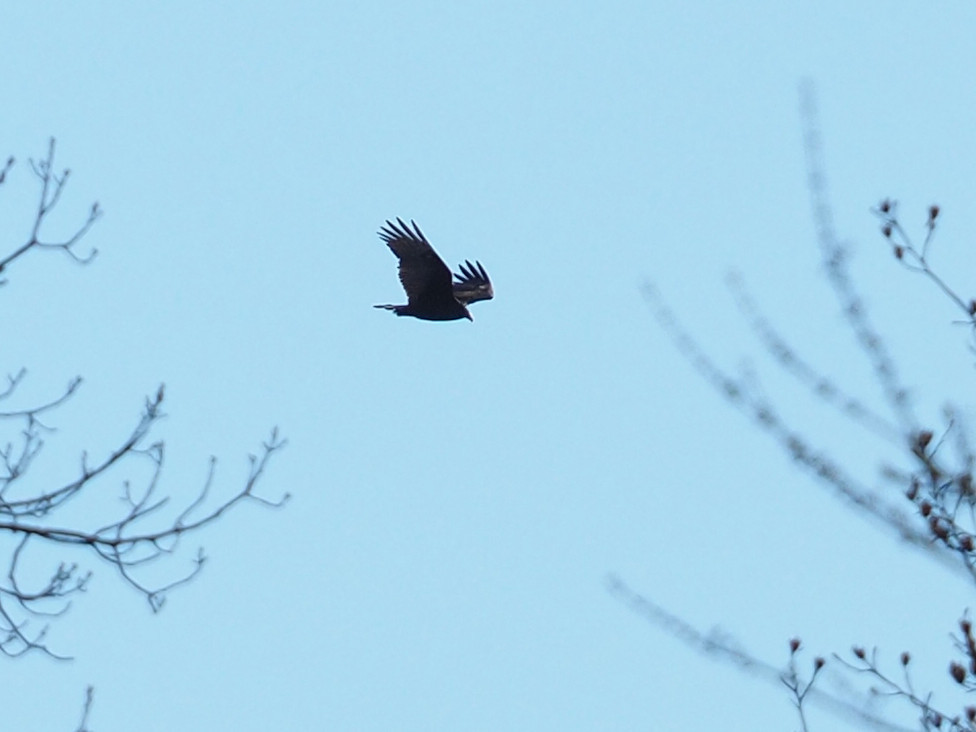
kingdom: Animalia
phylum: Chordata
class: Aves
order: Accipitriformes
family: Cathartidae
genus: Cathartes
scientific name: Cathartes aura
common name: Turkey vulture
